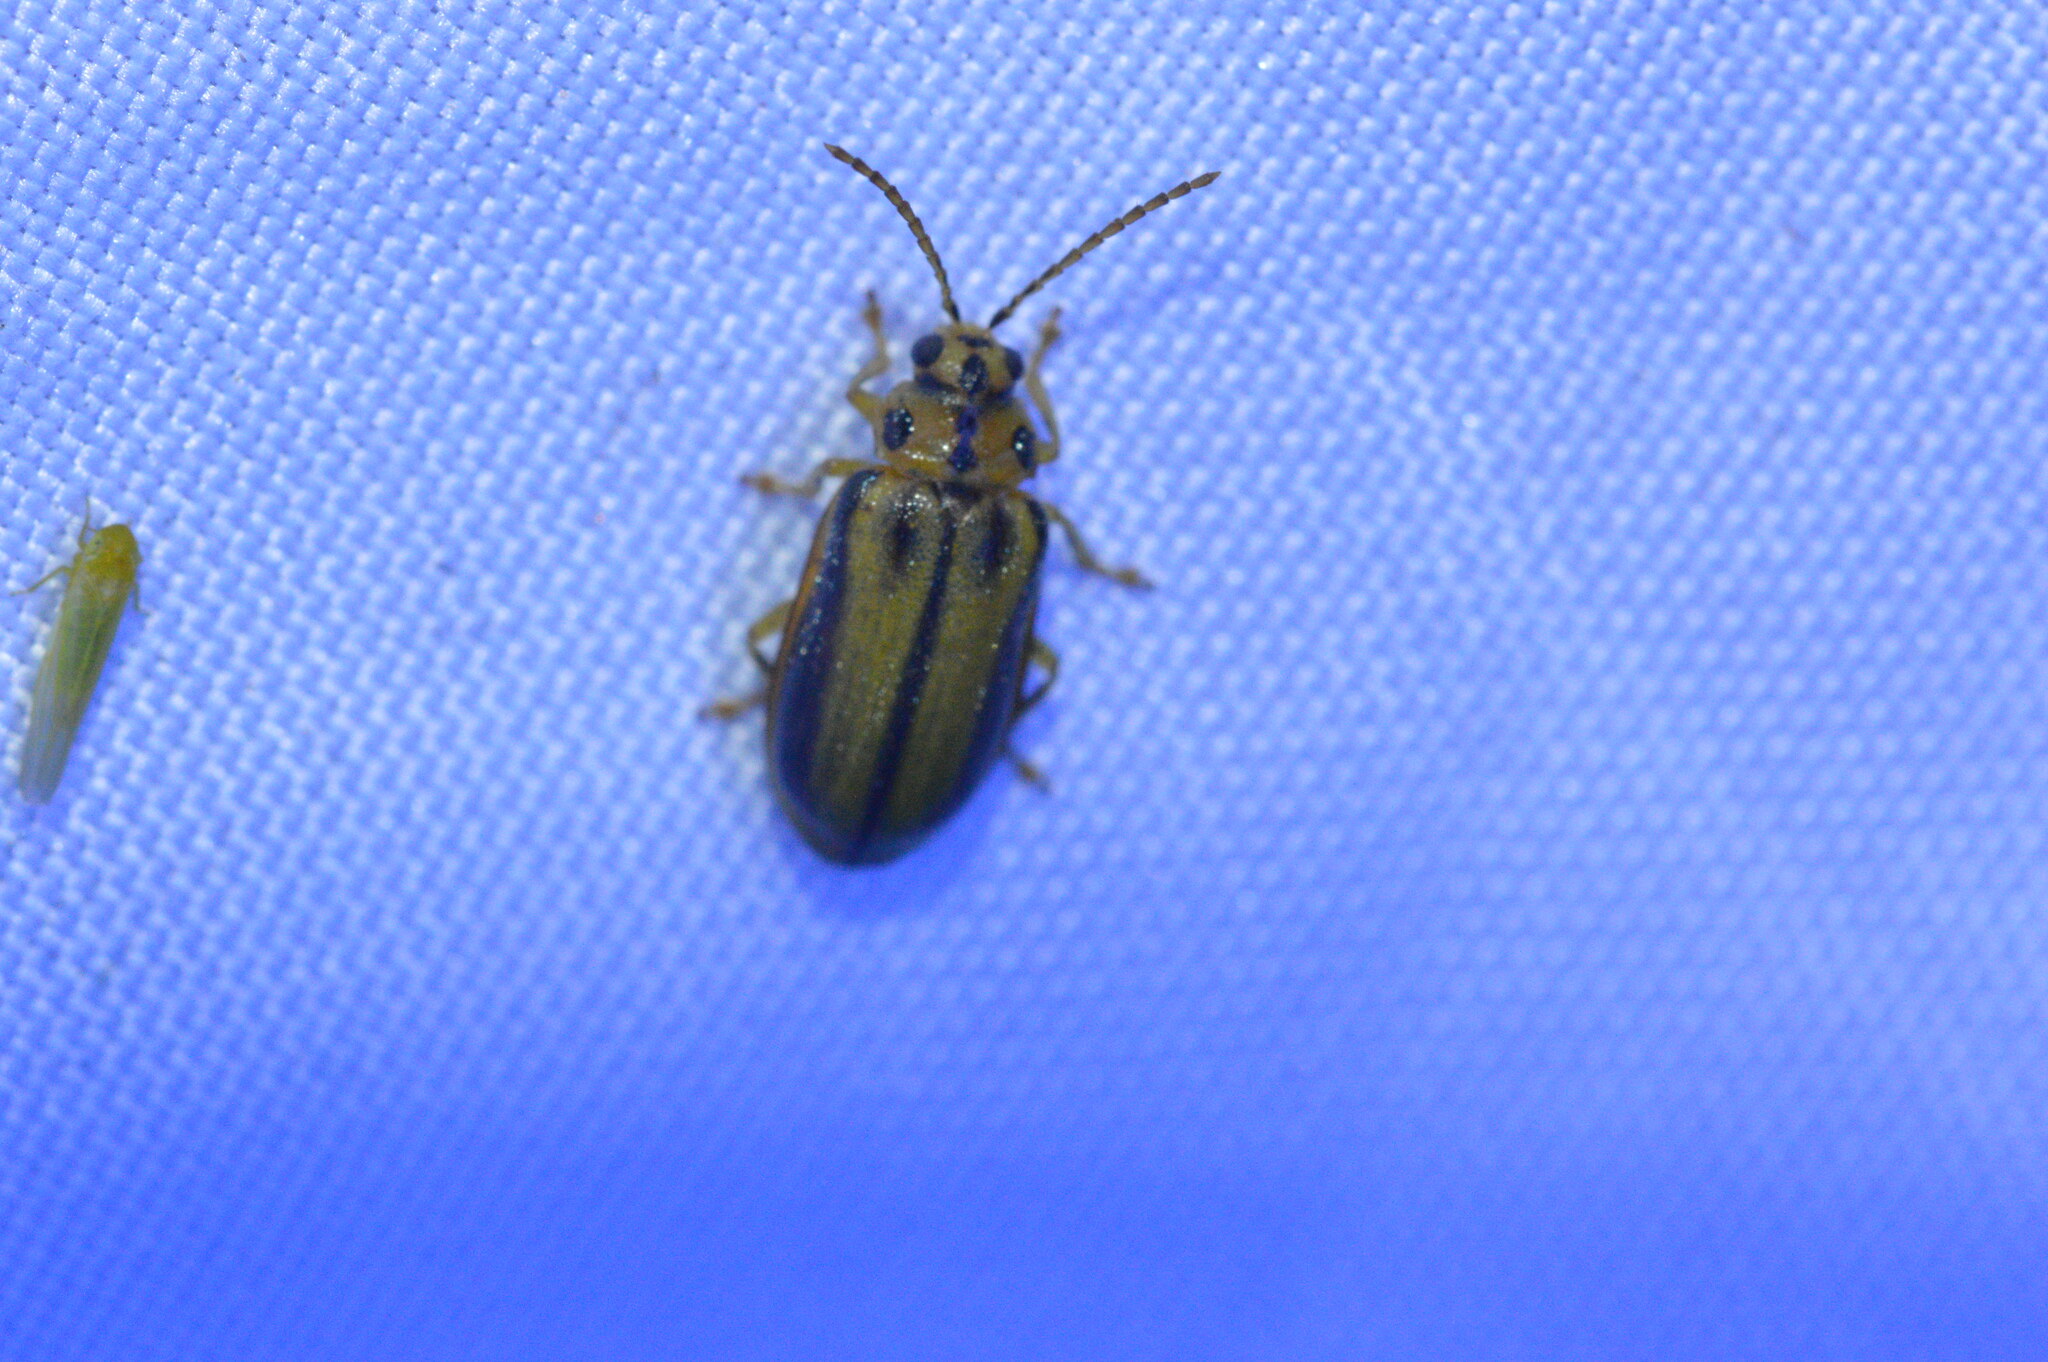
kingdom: Animalia
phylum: Arthropoda
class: Insecta
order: Coleoptera
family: Chrysomelidae
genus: Xanthogaleruca
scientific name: Xanthogaleruca luteola
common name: Elm leaf beetle
